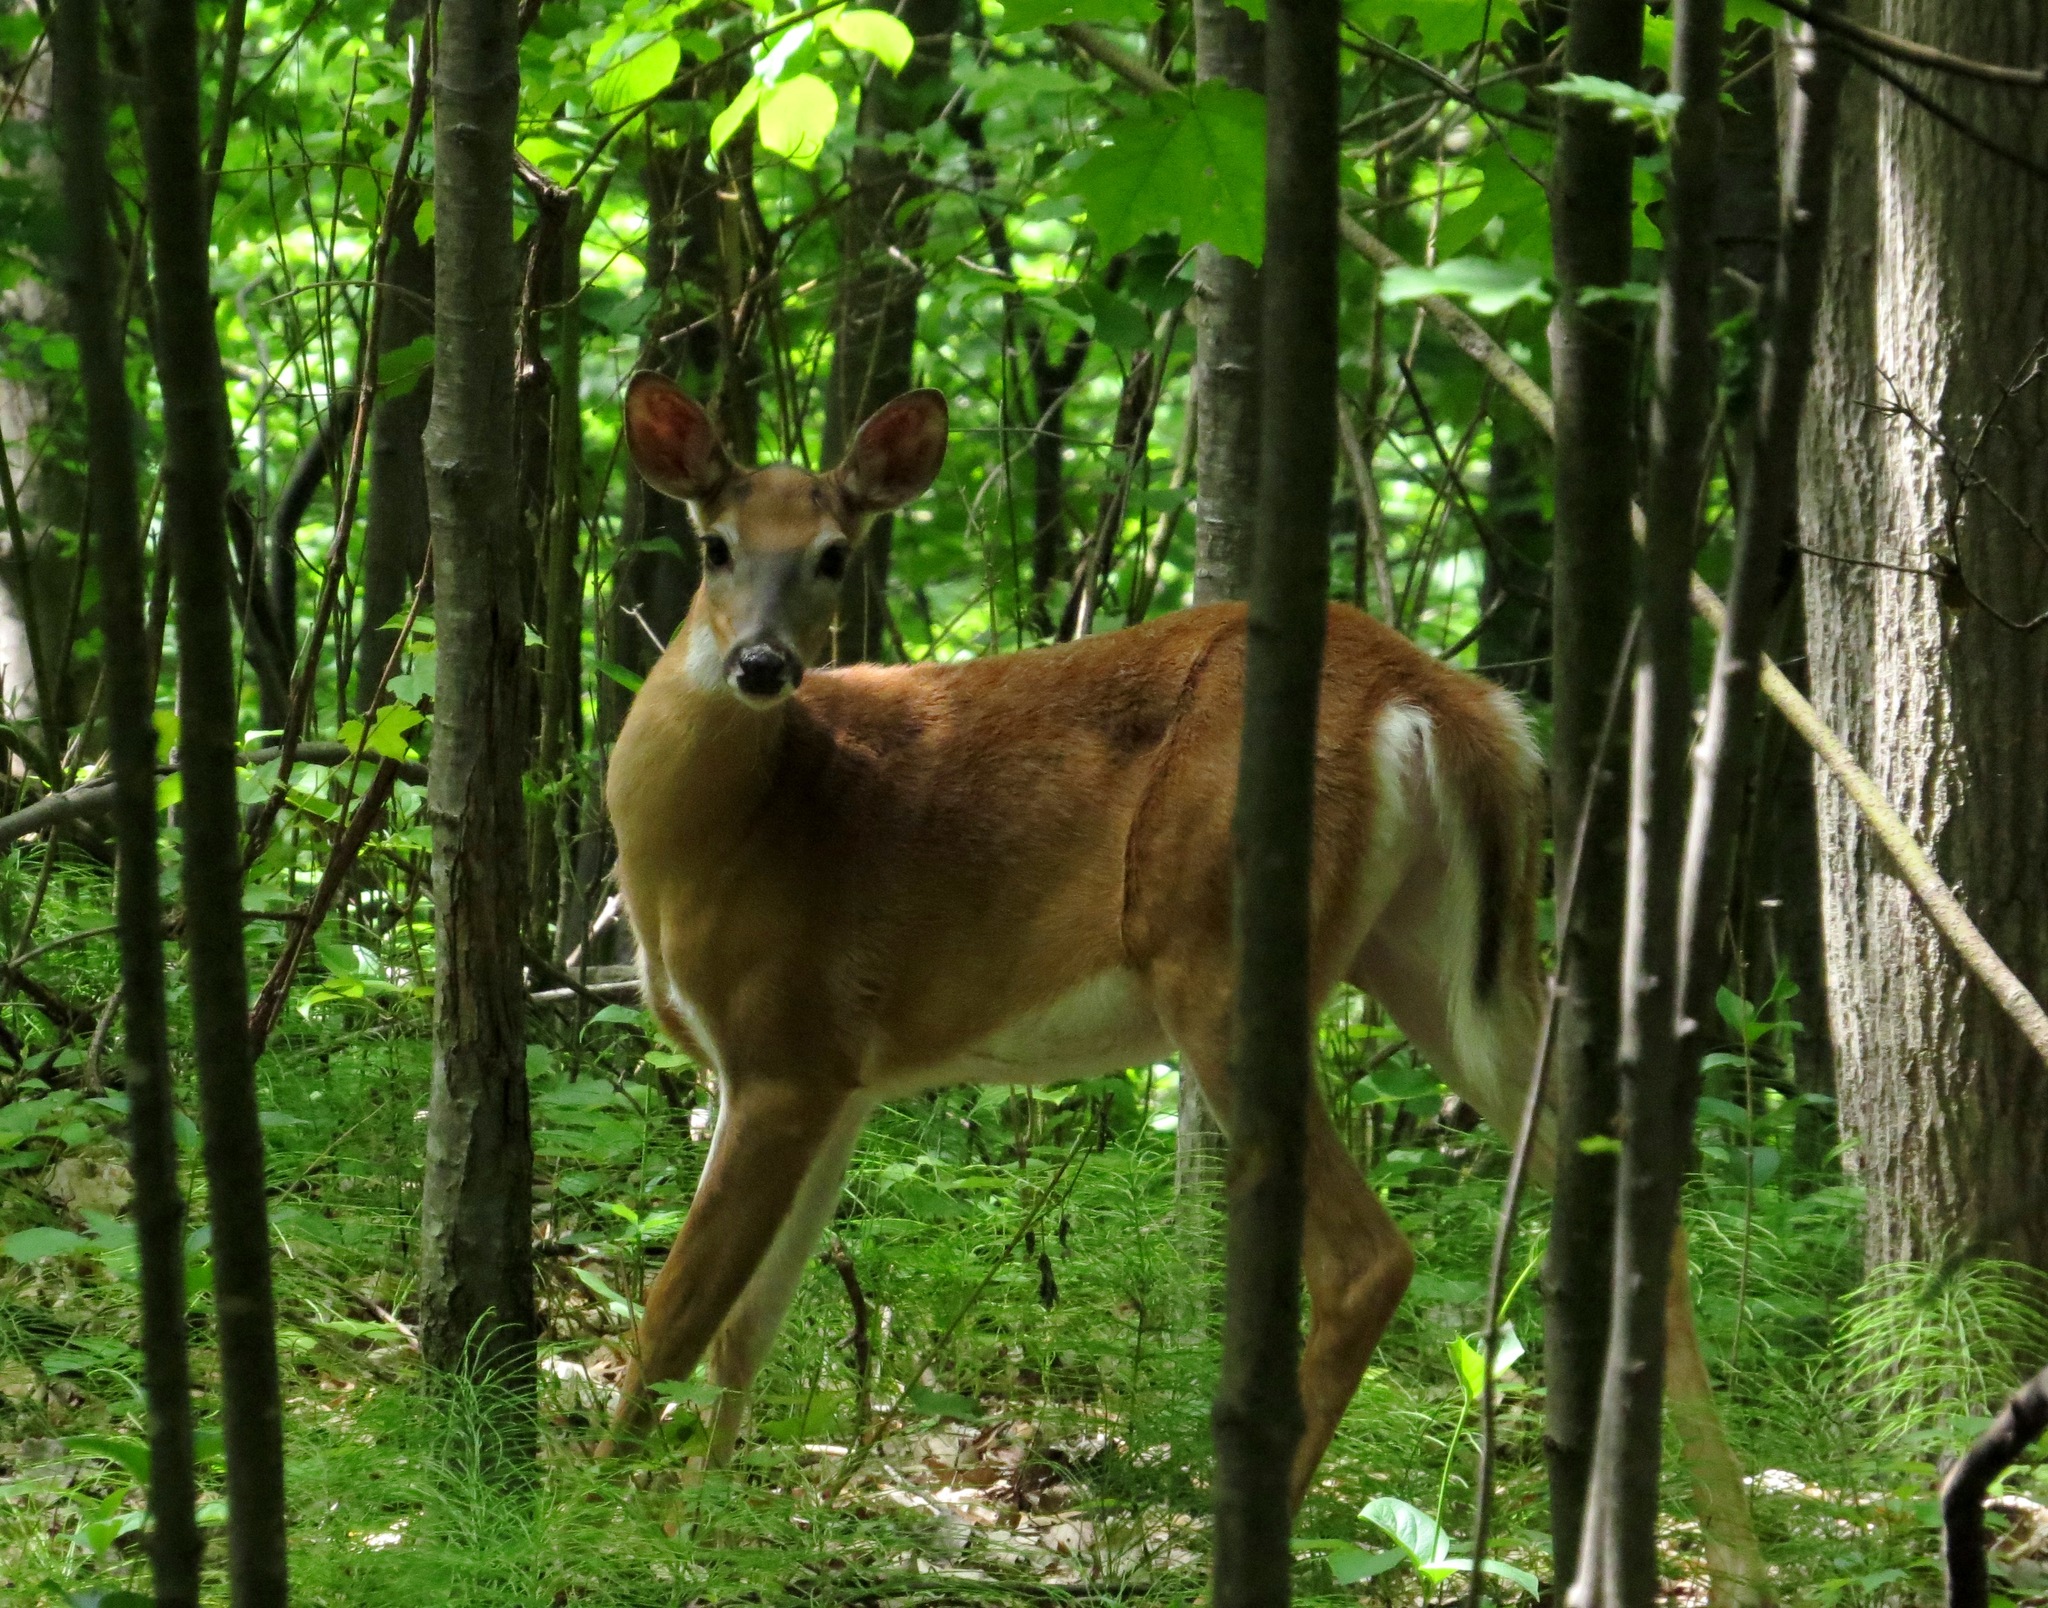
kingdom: Animalia
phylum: Chordata
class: Mammalia
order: Artiodactyla
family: Cervidae
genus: Odocoileus
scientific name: Odocoileus virginianus
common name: White-tailed deer
